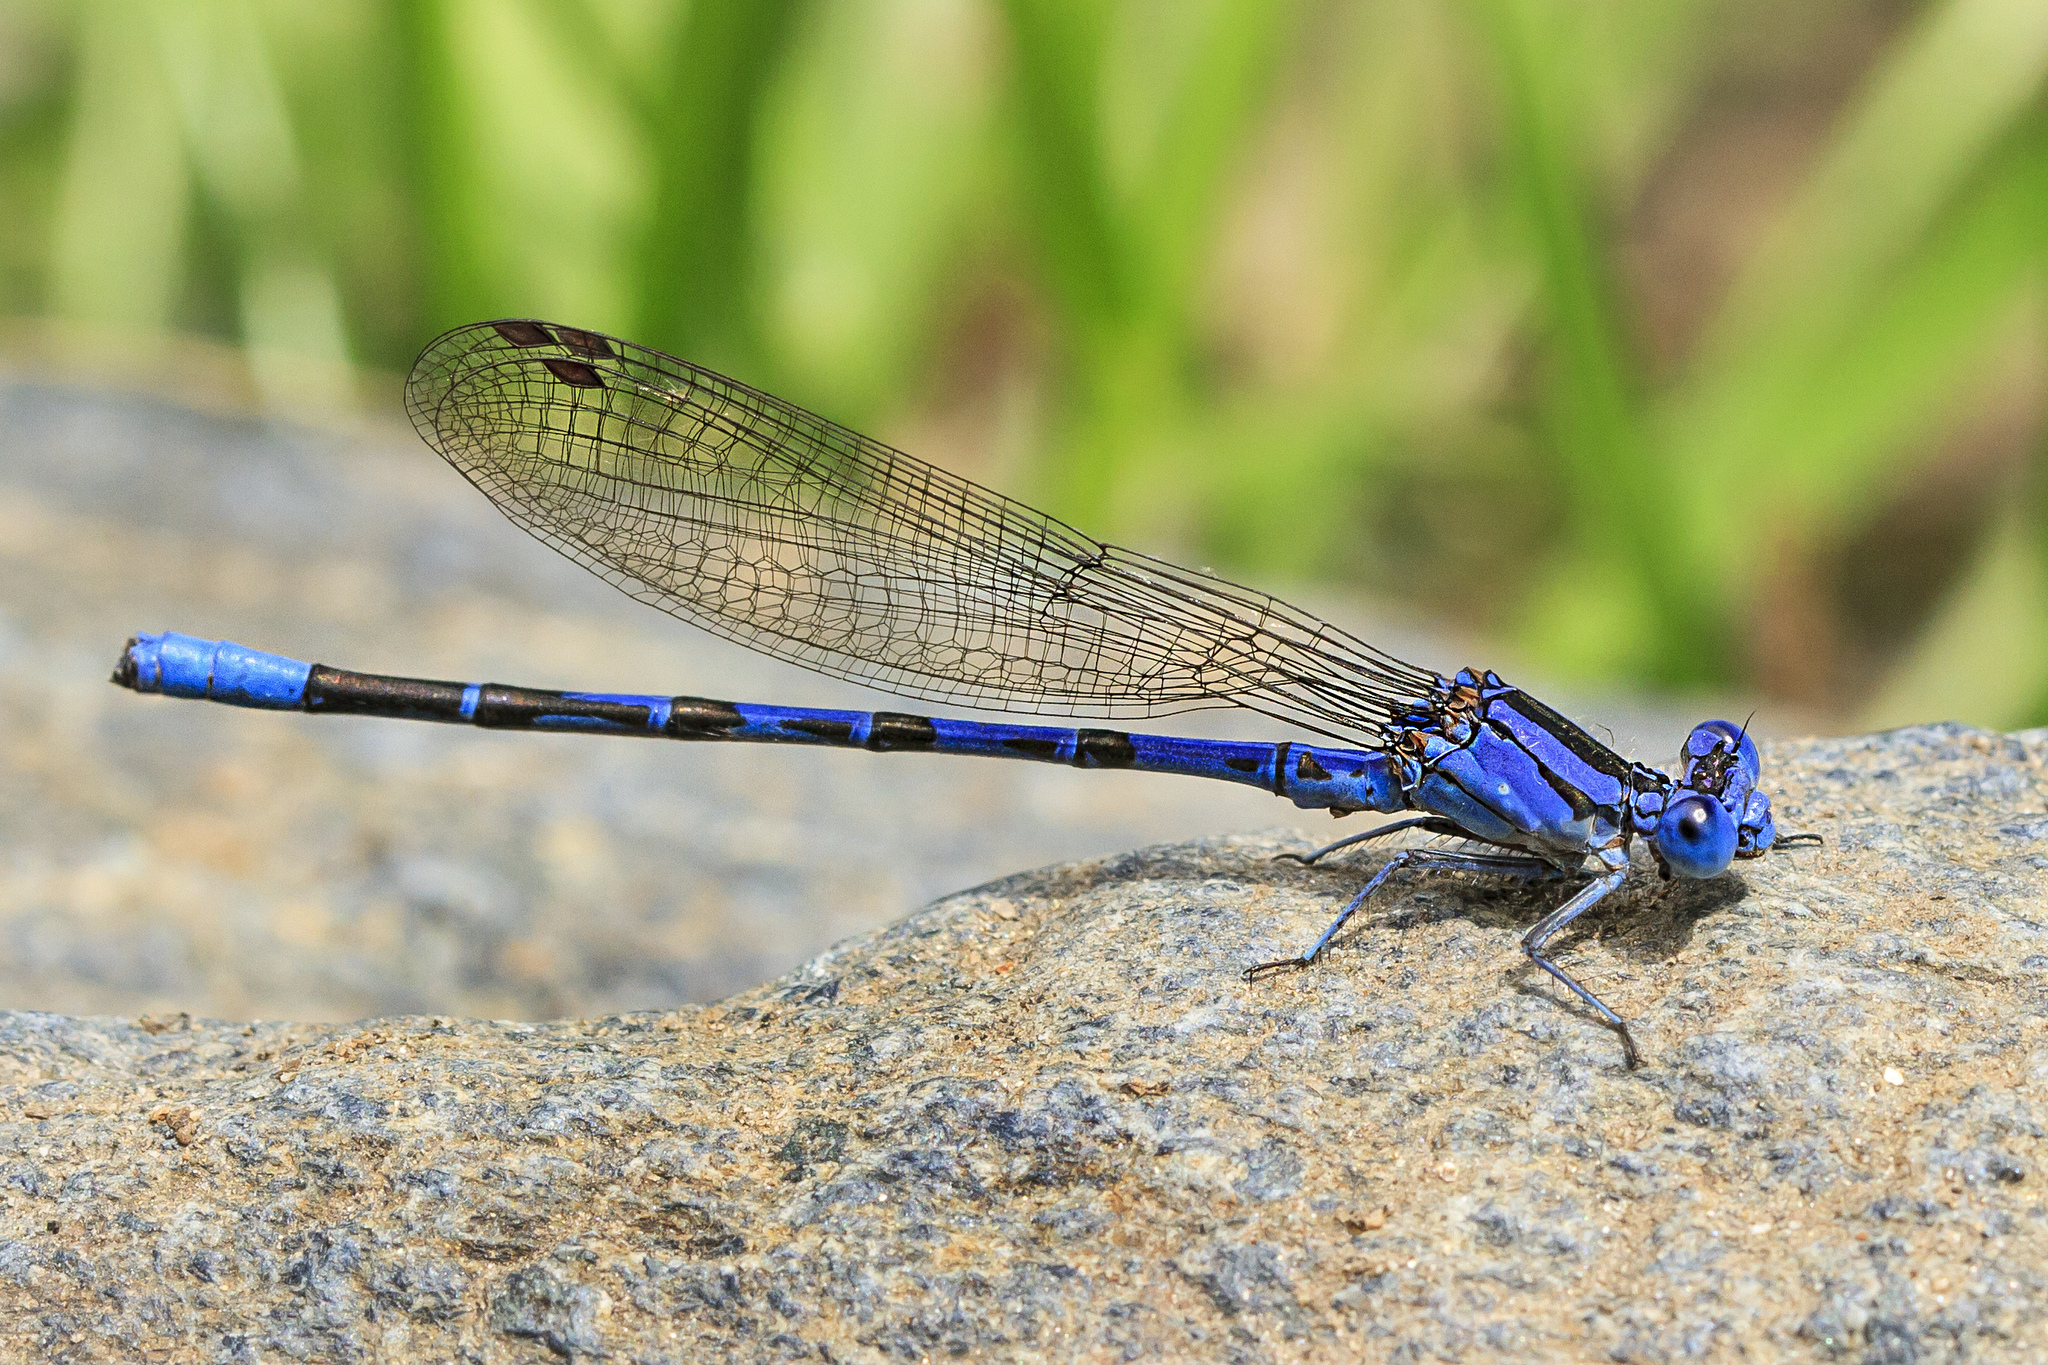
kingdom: Animalia
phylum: Arthropoda
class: Insecta
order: Odonata
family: Coenagrionidae
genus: Argia
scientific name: Argia vivida
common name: Vivid dancer
